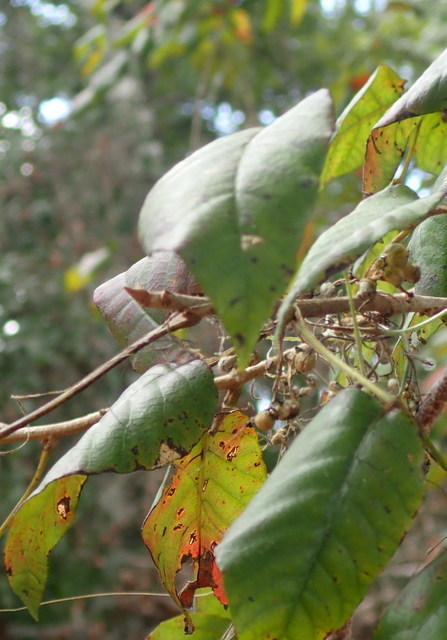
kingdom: Plantae
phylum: Tracheophyta
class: Magnoliopsida
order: Sapindales
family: Anacardiaceae
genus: Toxicodendron
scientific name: Toxicodendron radicans
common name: Poison ivy
